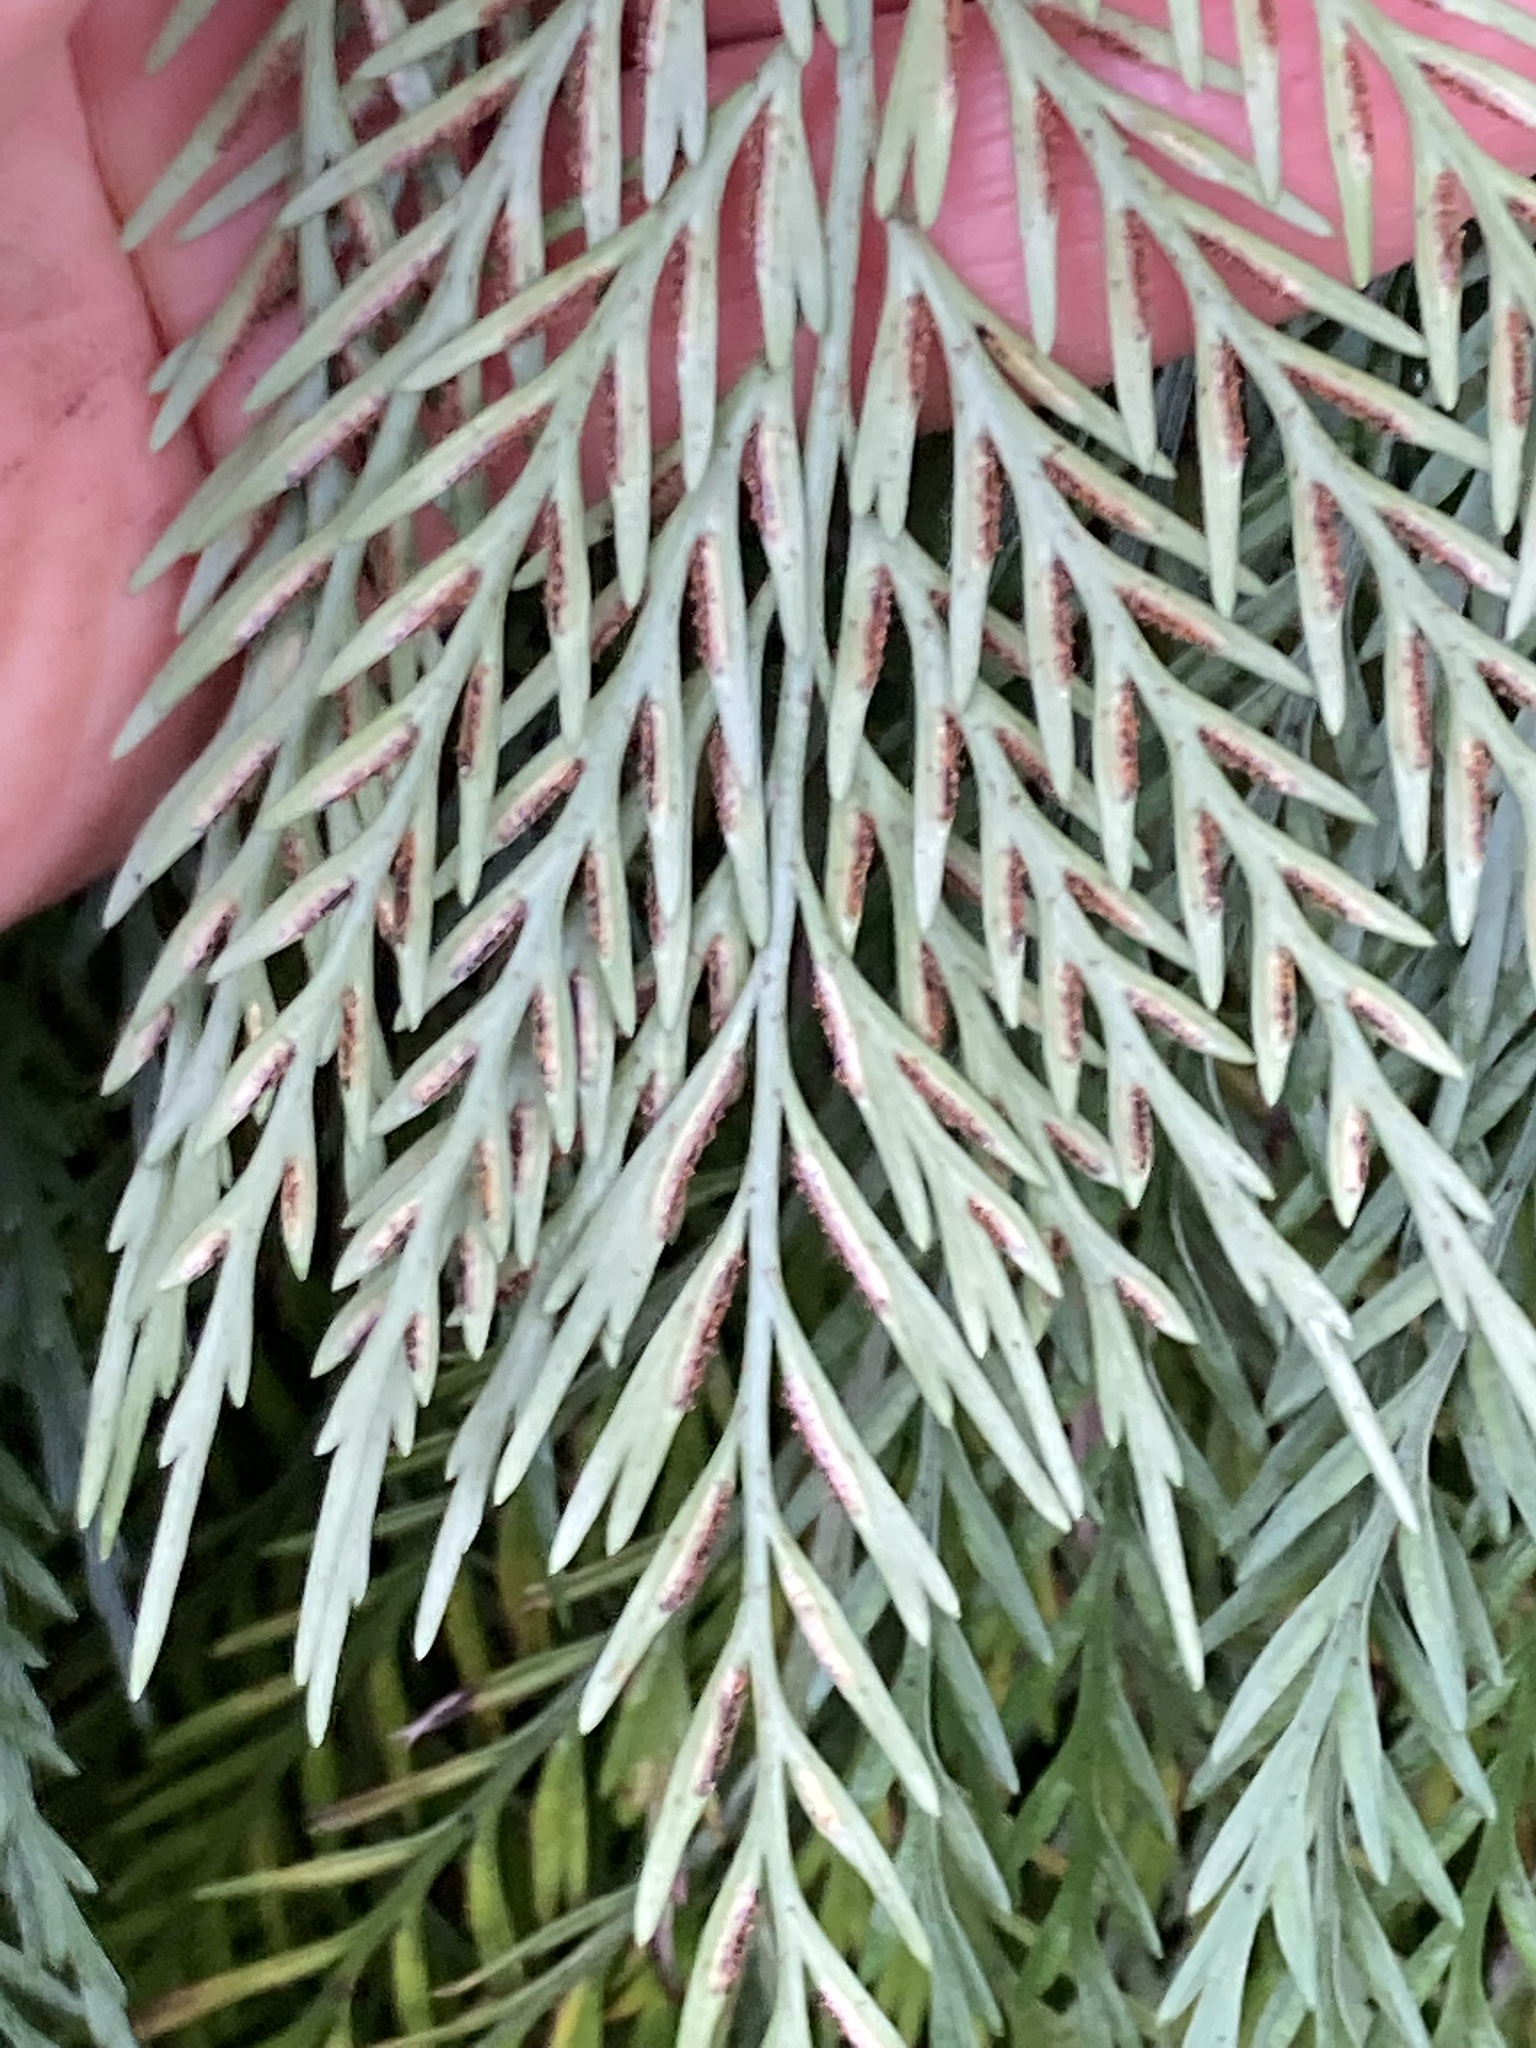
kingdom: Plantae
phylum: Tracheophyta
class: Polypodiopsida
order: Polypodiales
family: Aspleniaceae
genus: Asplenium
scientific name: Asplenium appendiculatum
